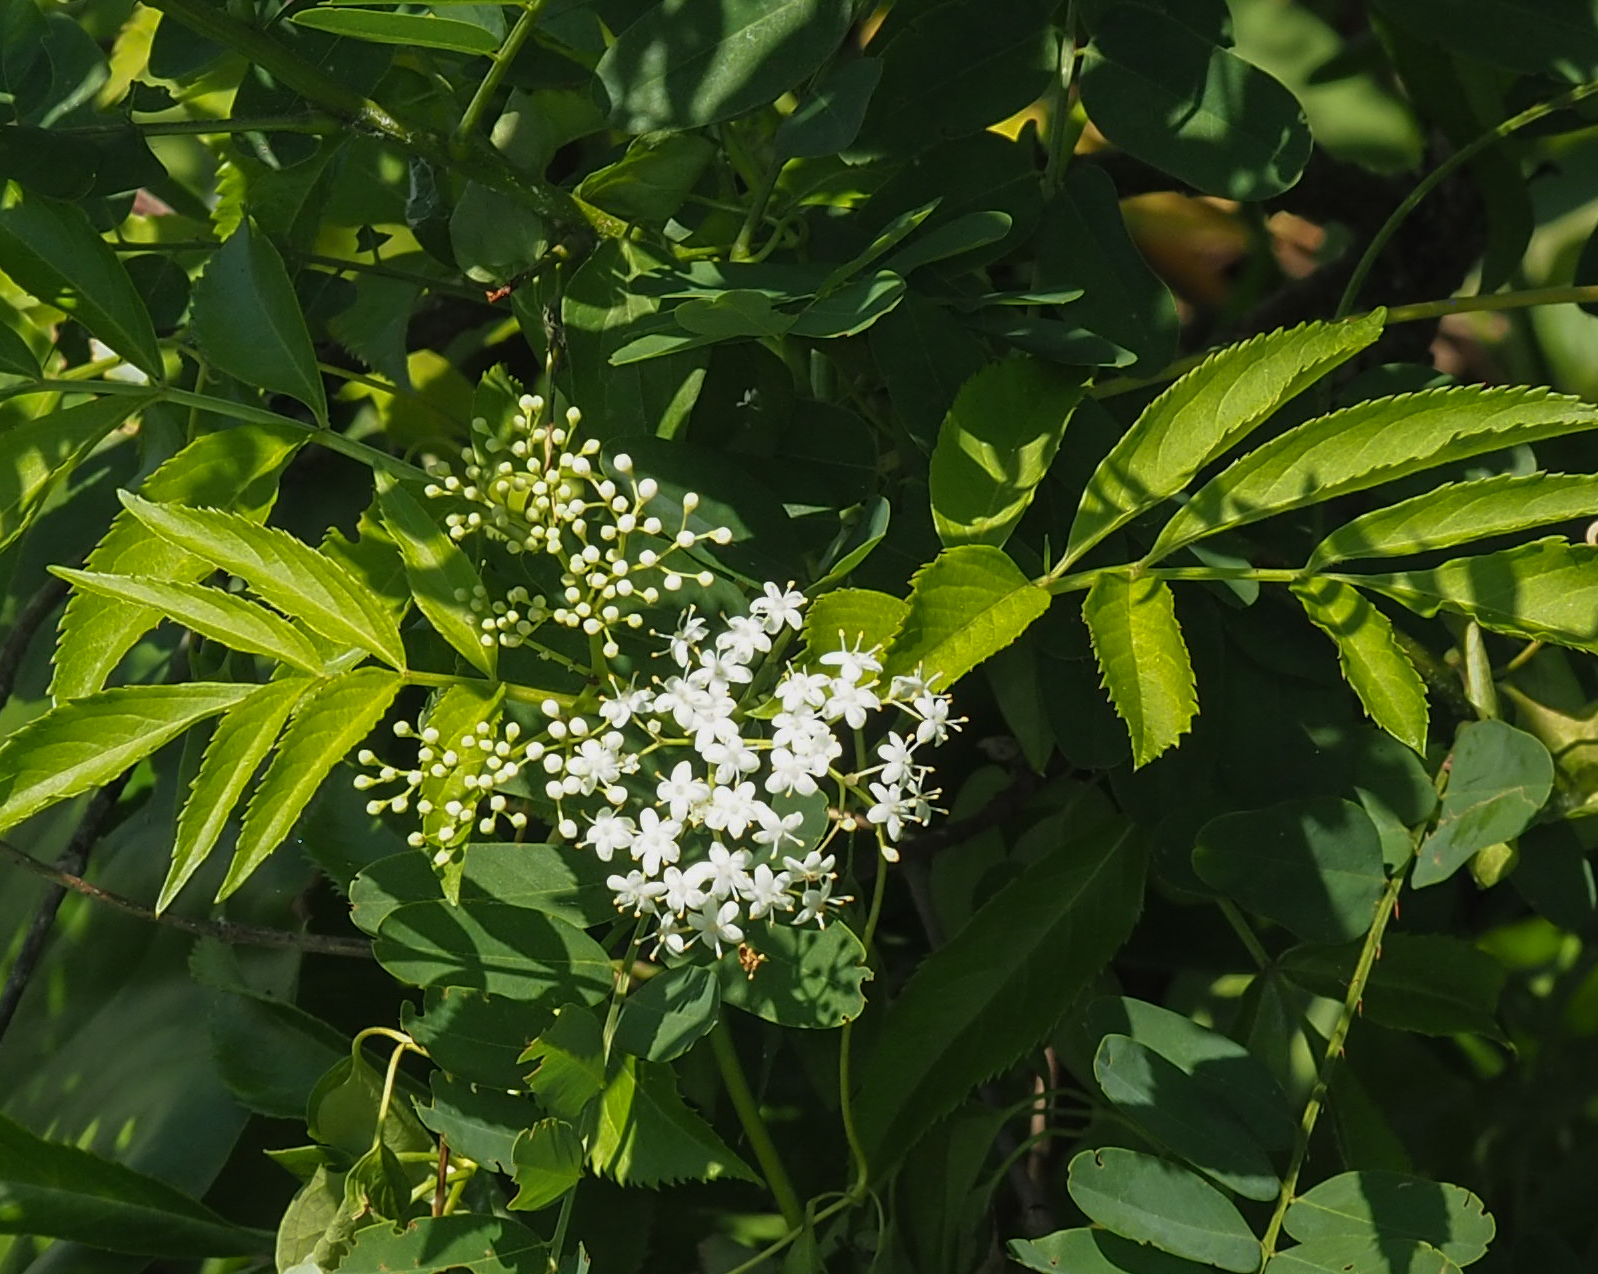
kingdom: Plantae
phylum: Tracheophyta
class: Magnoliopsida
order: Dipsacales
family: Viburnaceae
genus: Sambucus
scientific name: Sambucus canadensis
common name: American elder
